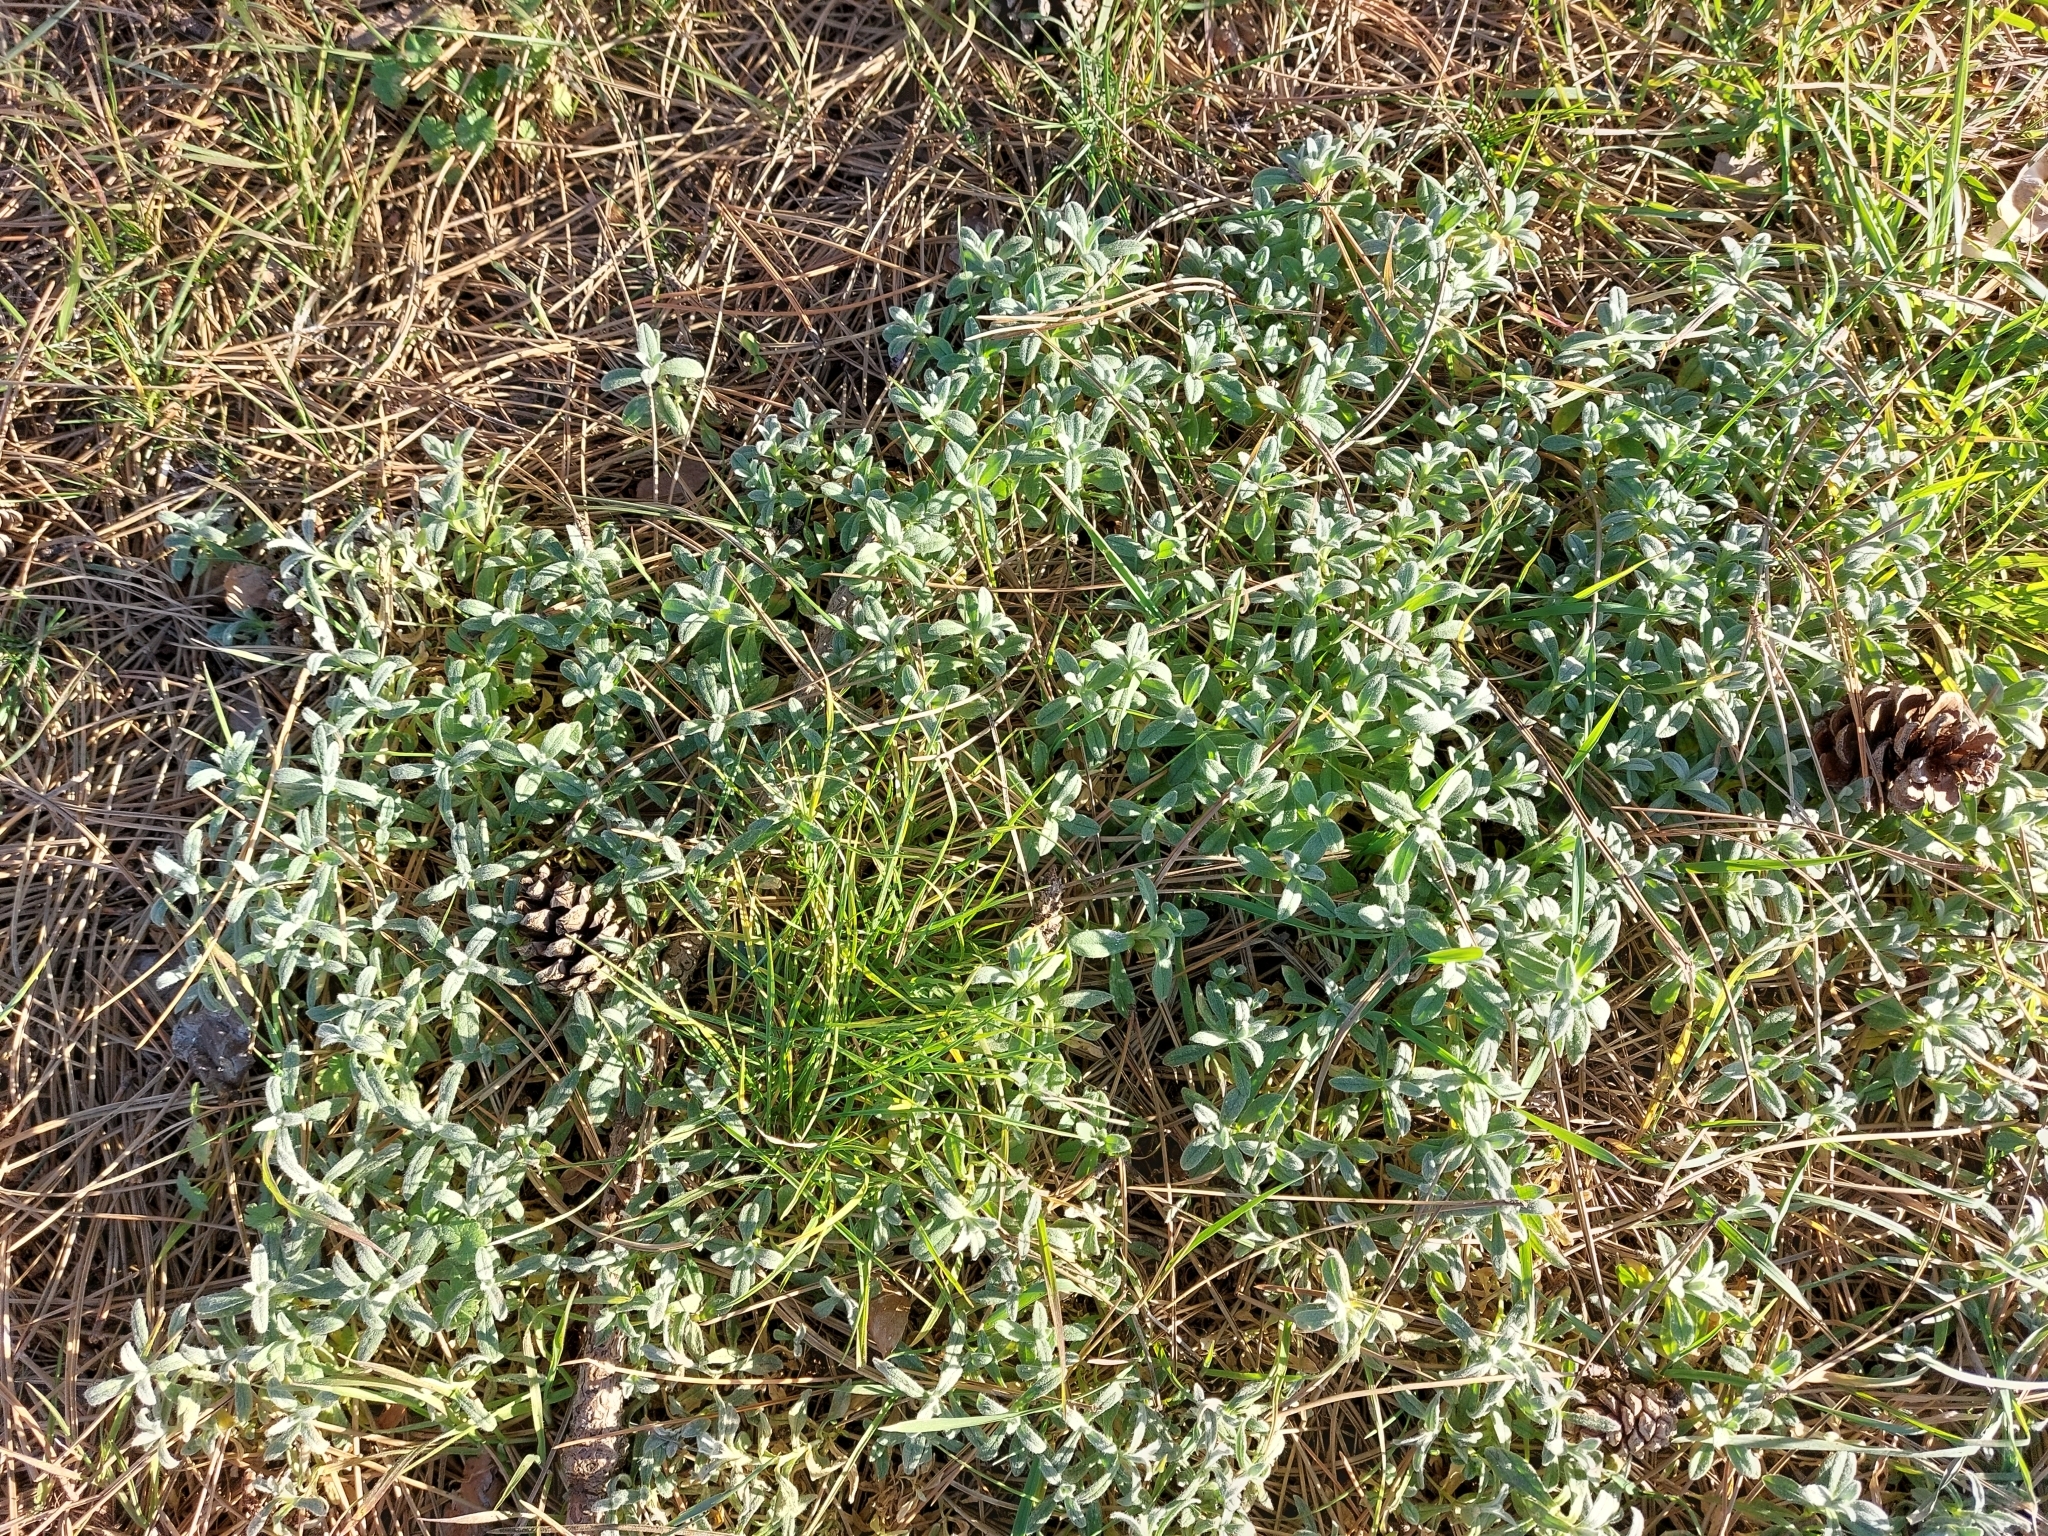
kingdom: Plantae
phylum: Tracheophyta
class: Magnoliopsida
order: Caryophyllales
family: Caryophyllaceae
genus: Cerastium
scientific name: Cerastium tomentosum
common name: Snow-in-summer
